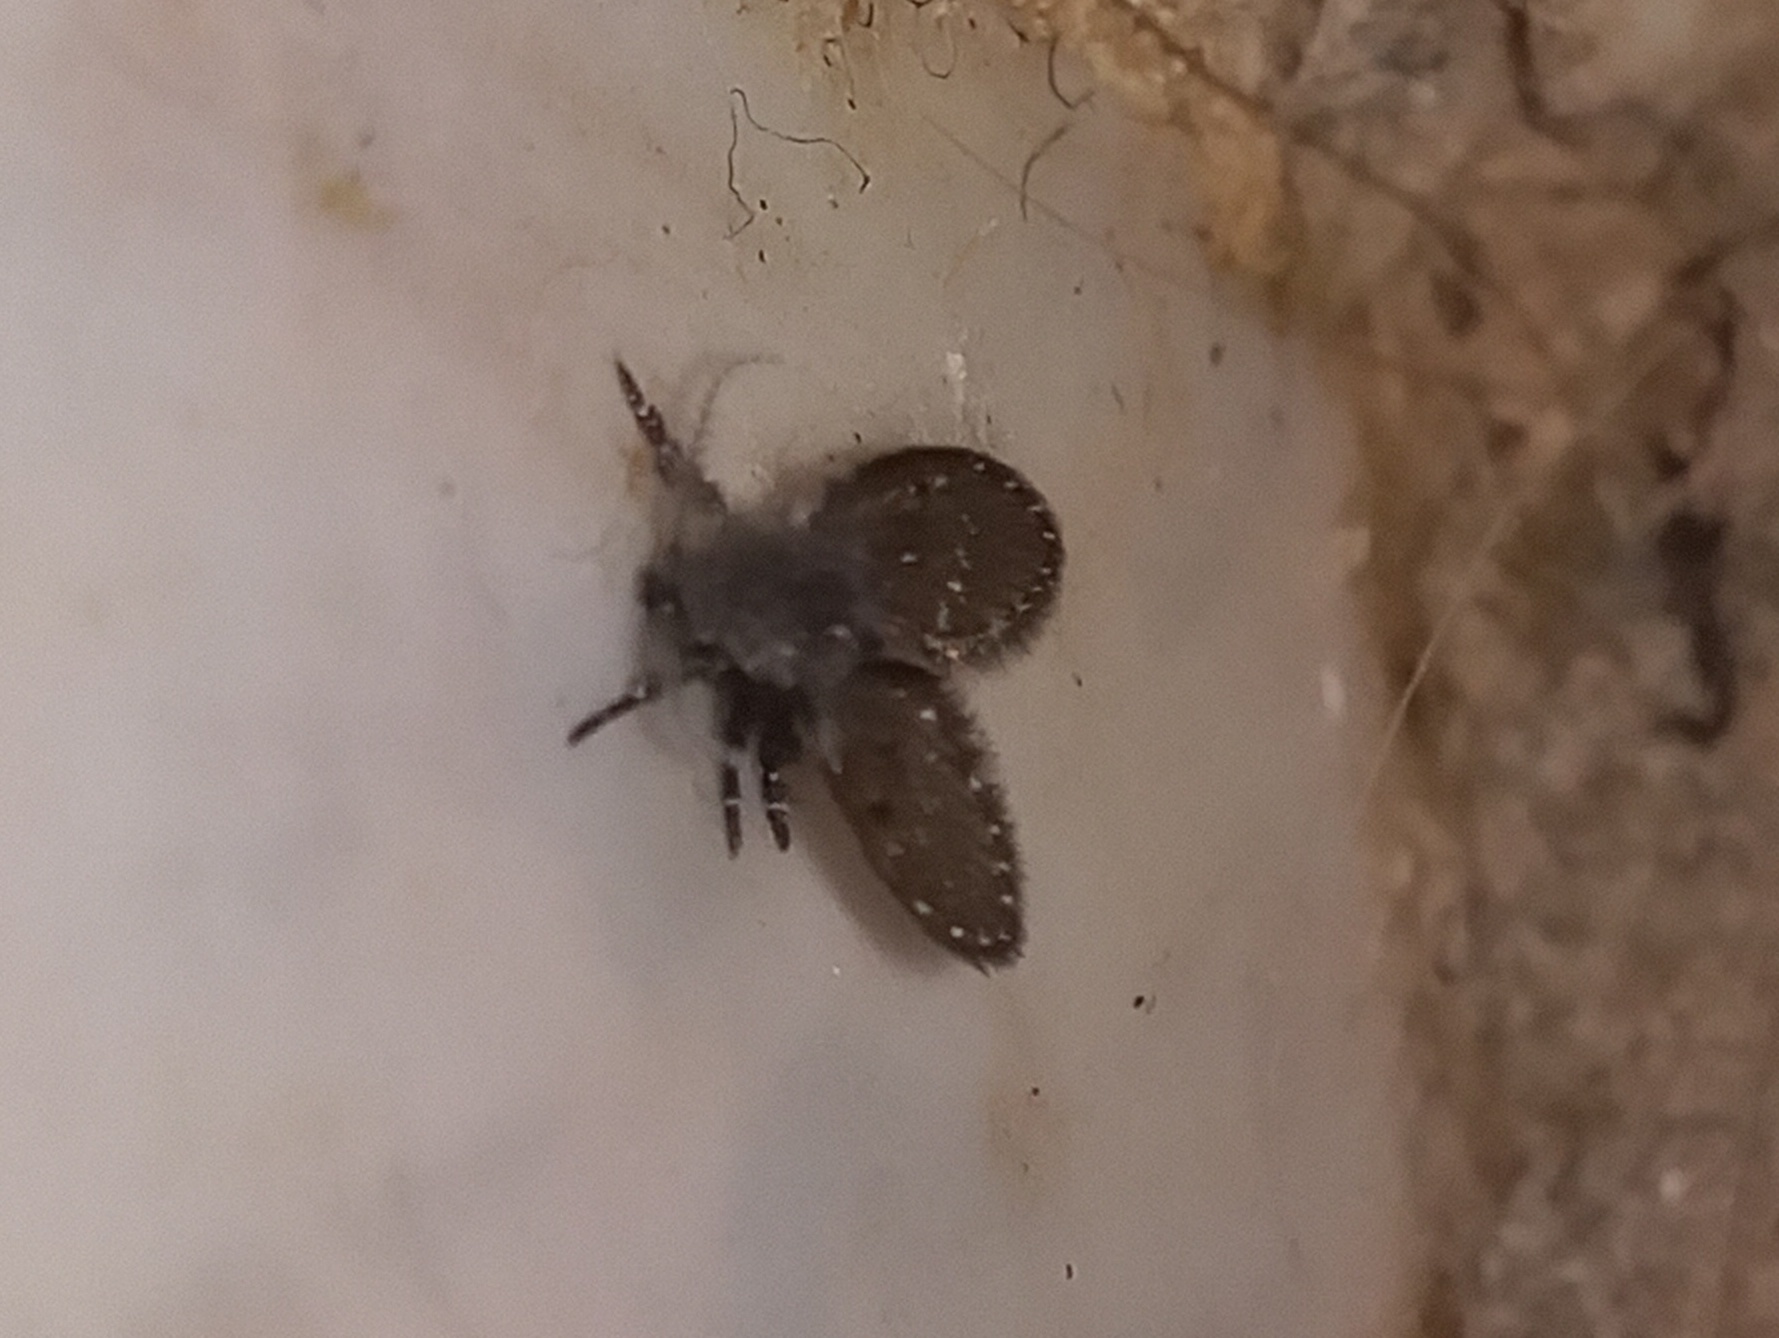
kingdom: Animalia
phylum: Arthropoda
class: Insecta
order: Diptera
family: Psychodidae
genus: Clogmia
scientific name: Clogmia albipunctatus
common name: White-spotted moth fly
